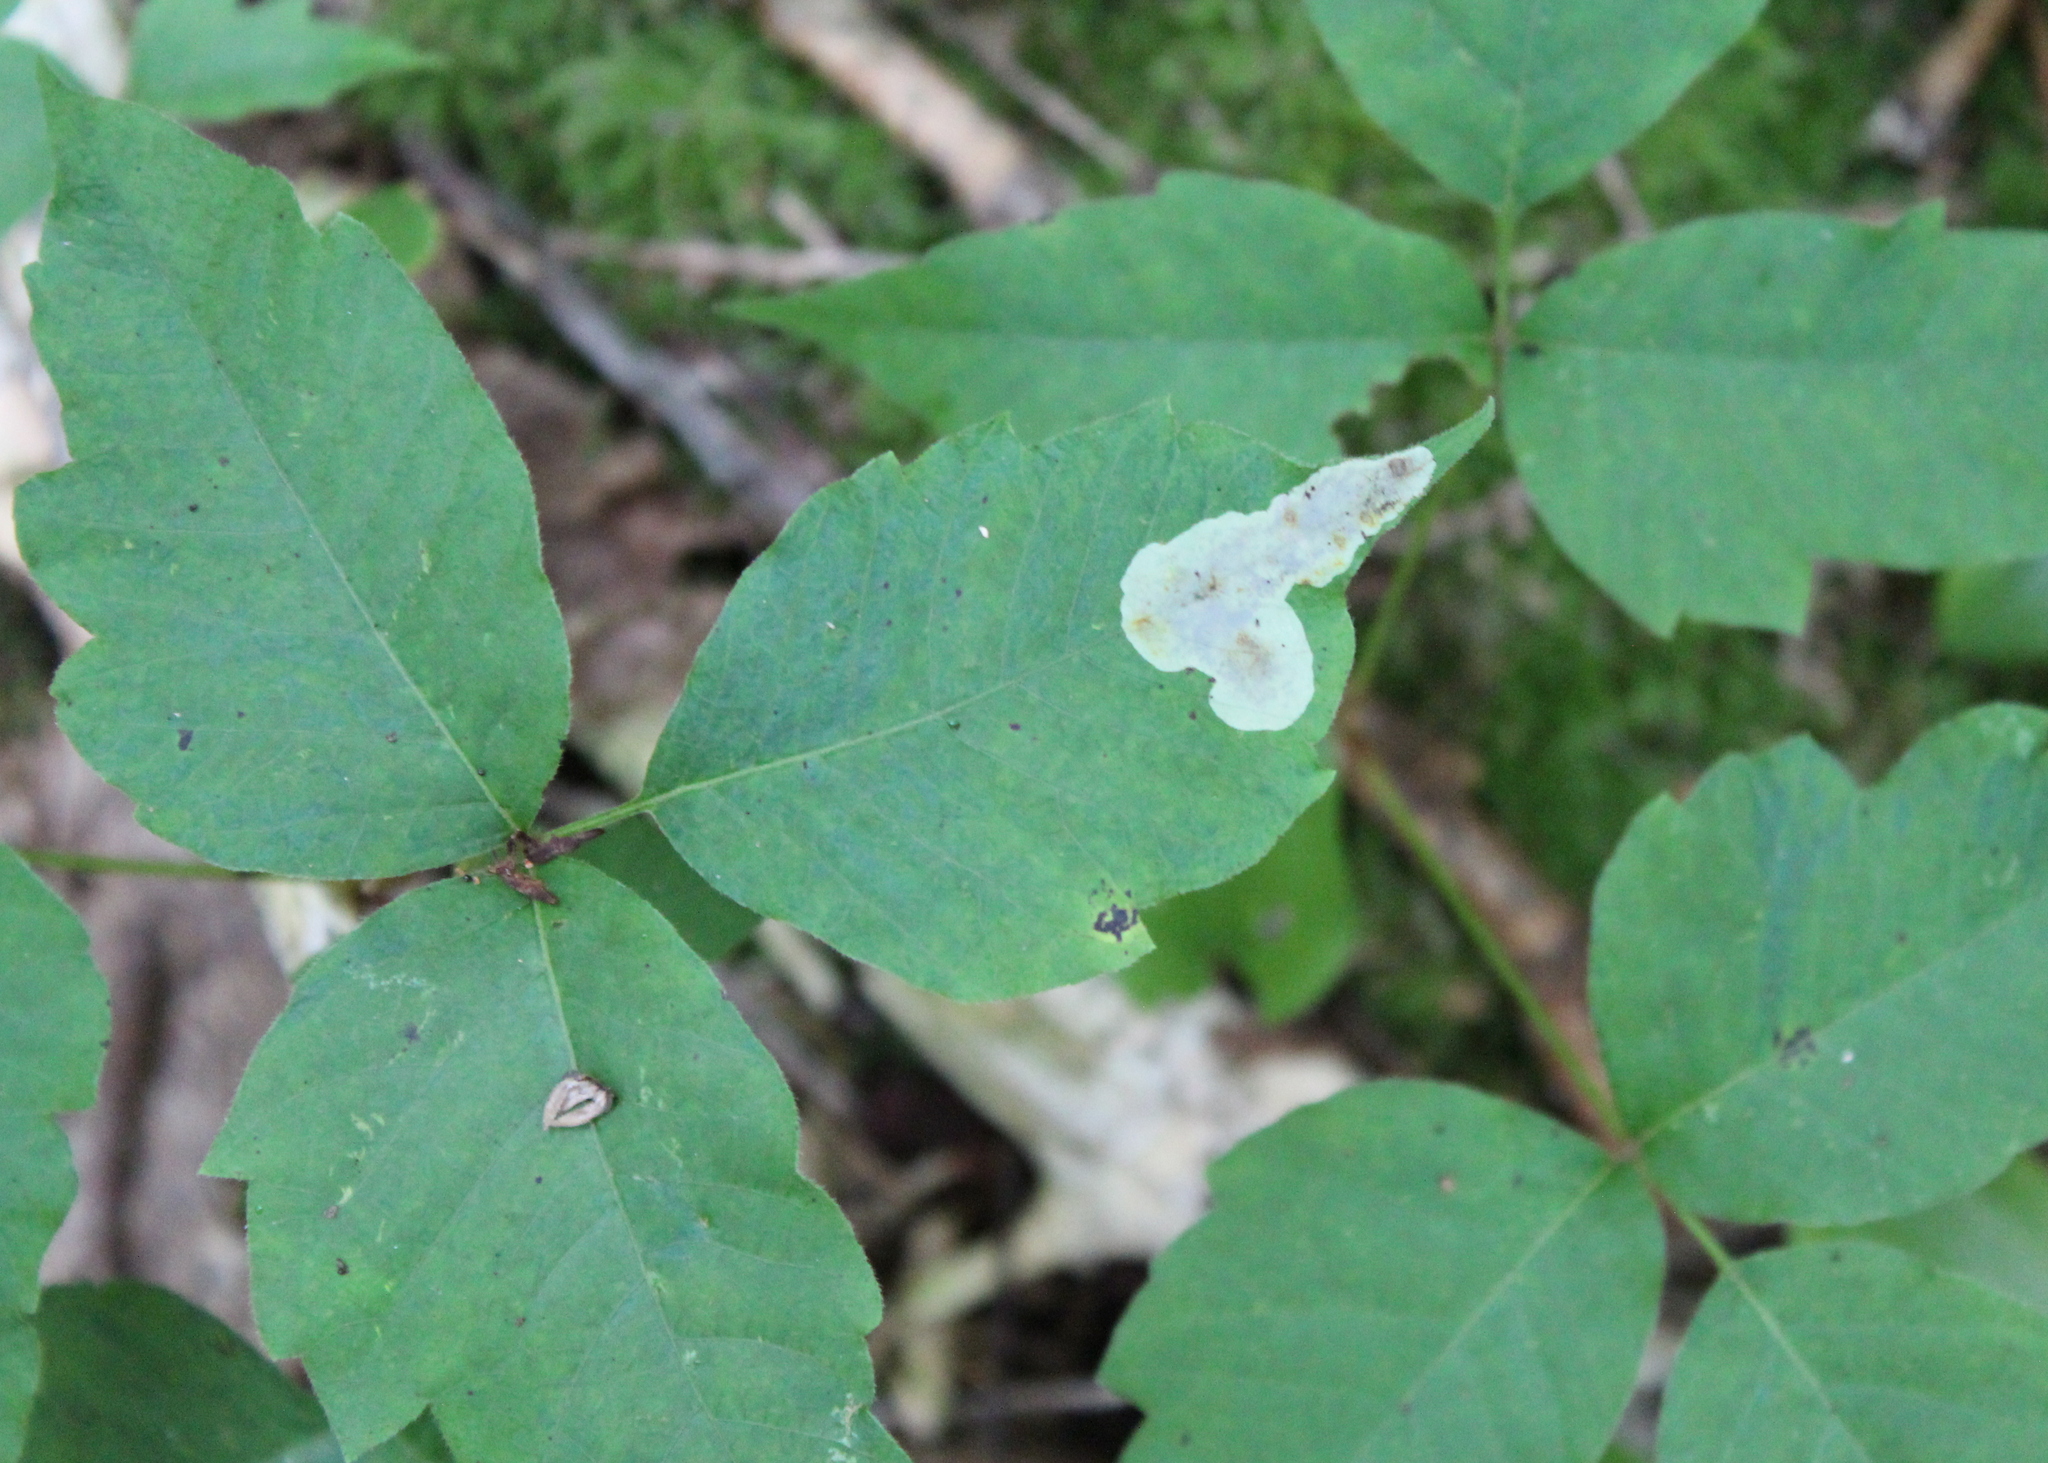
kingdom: Animalia
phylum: Arthropoda
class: Insecta
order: Lepidoptera
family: Gracillariidae
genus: Cameraria
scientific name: Cameraria guttifinitella
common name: Poison ivy leaf-miner moth
